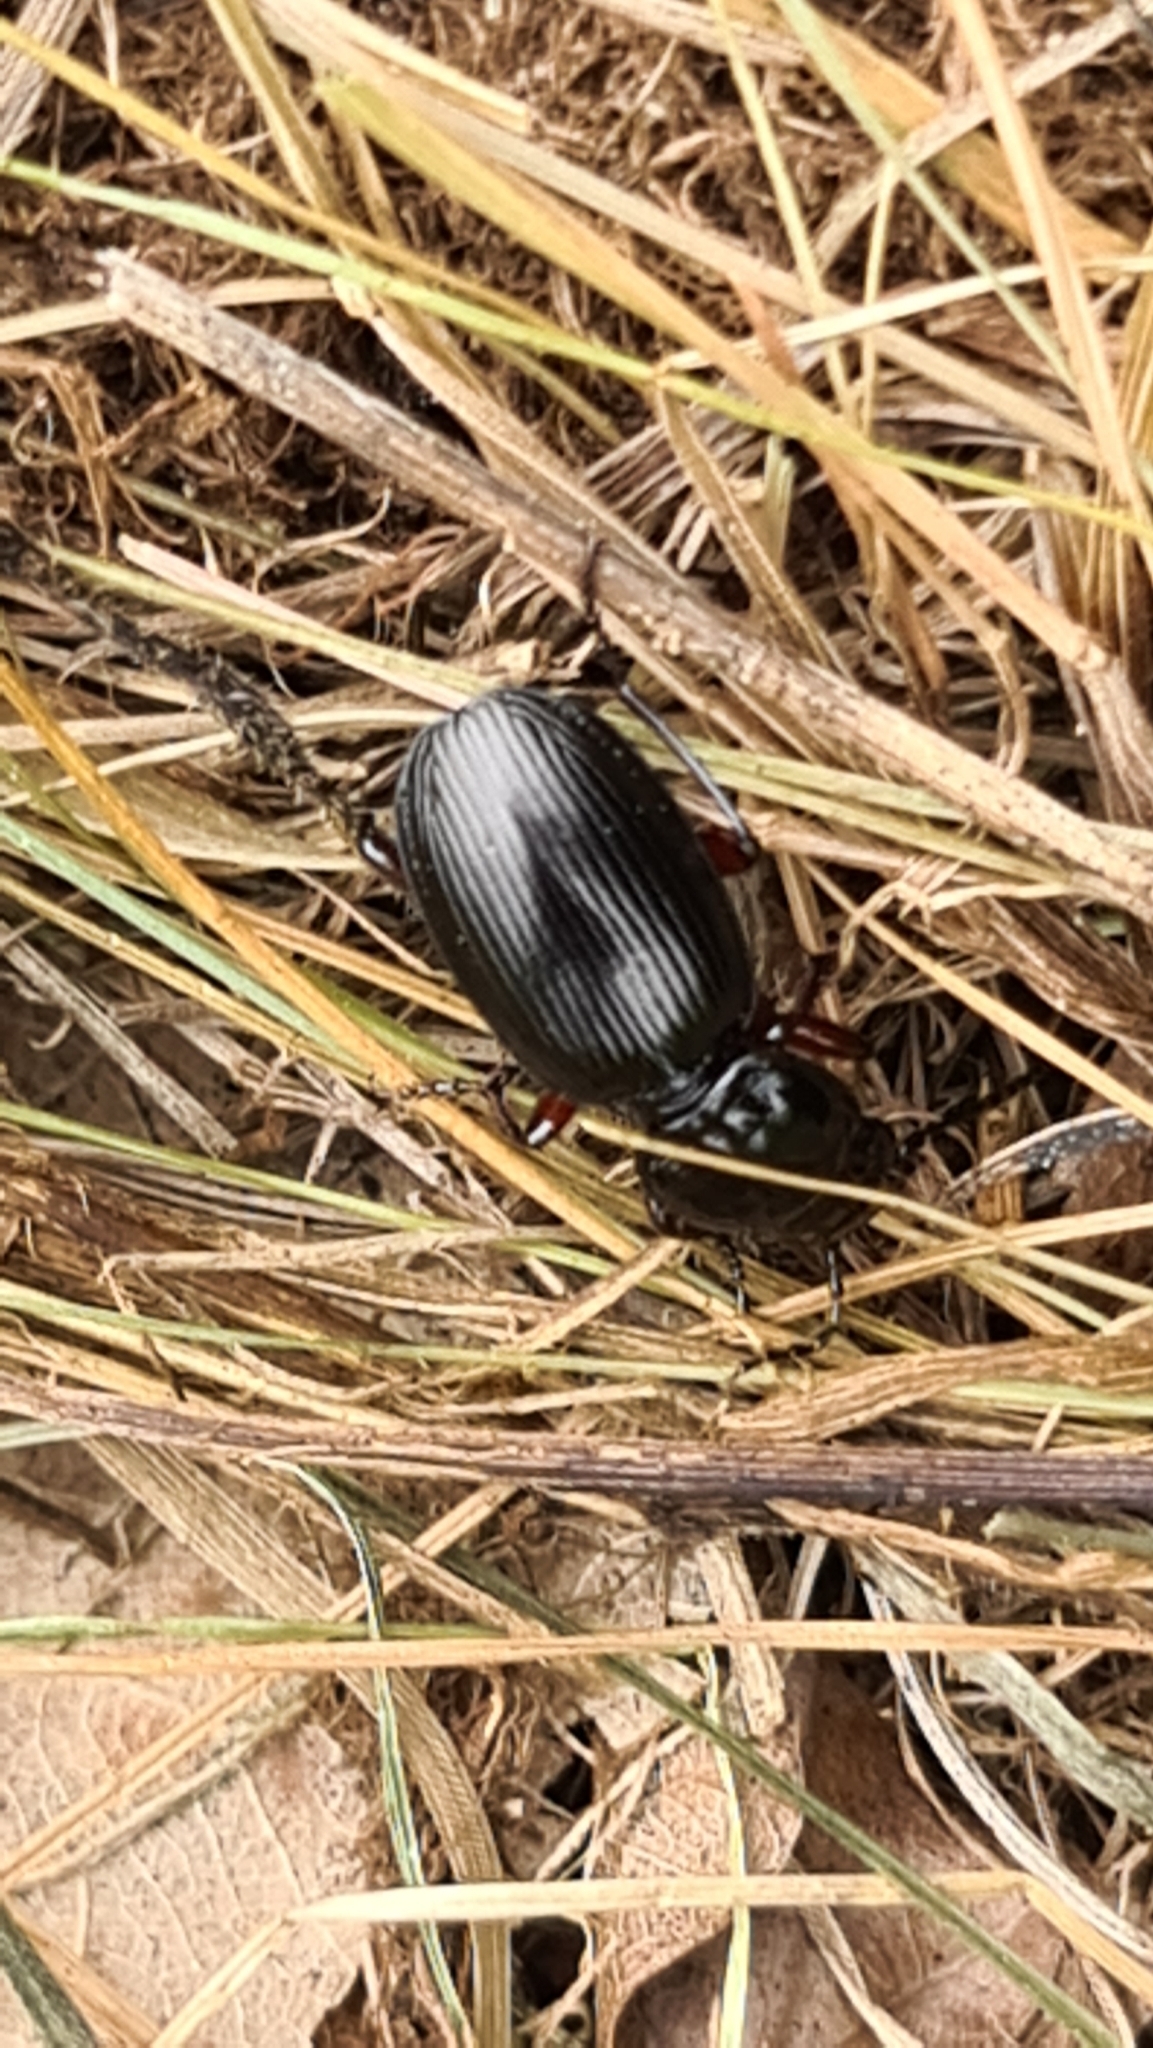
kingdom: Animalia
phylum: Arthropoda
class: Insecta
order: Coleoptera
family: Carabidae
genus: Pterostichus
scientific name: Pterostichus madidus
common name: Black clock
